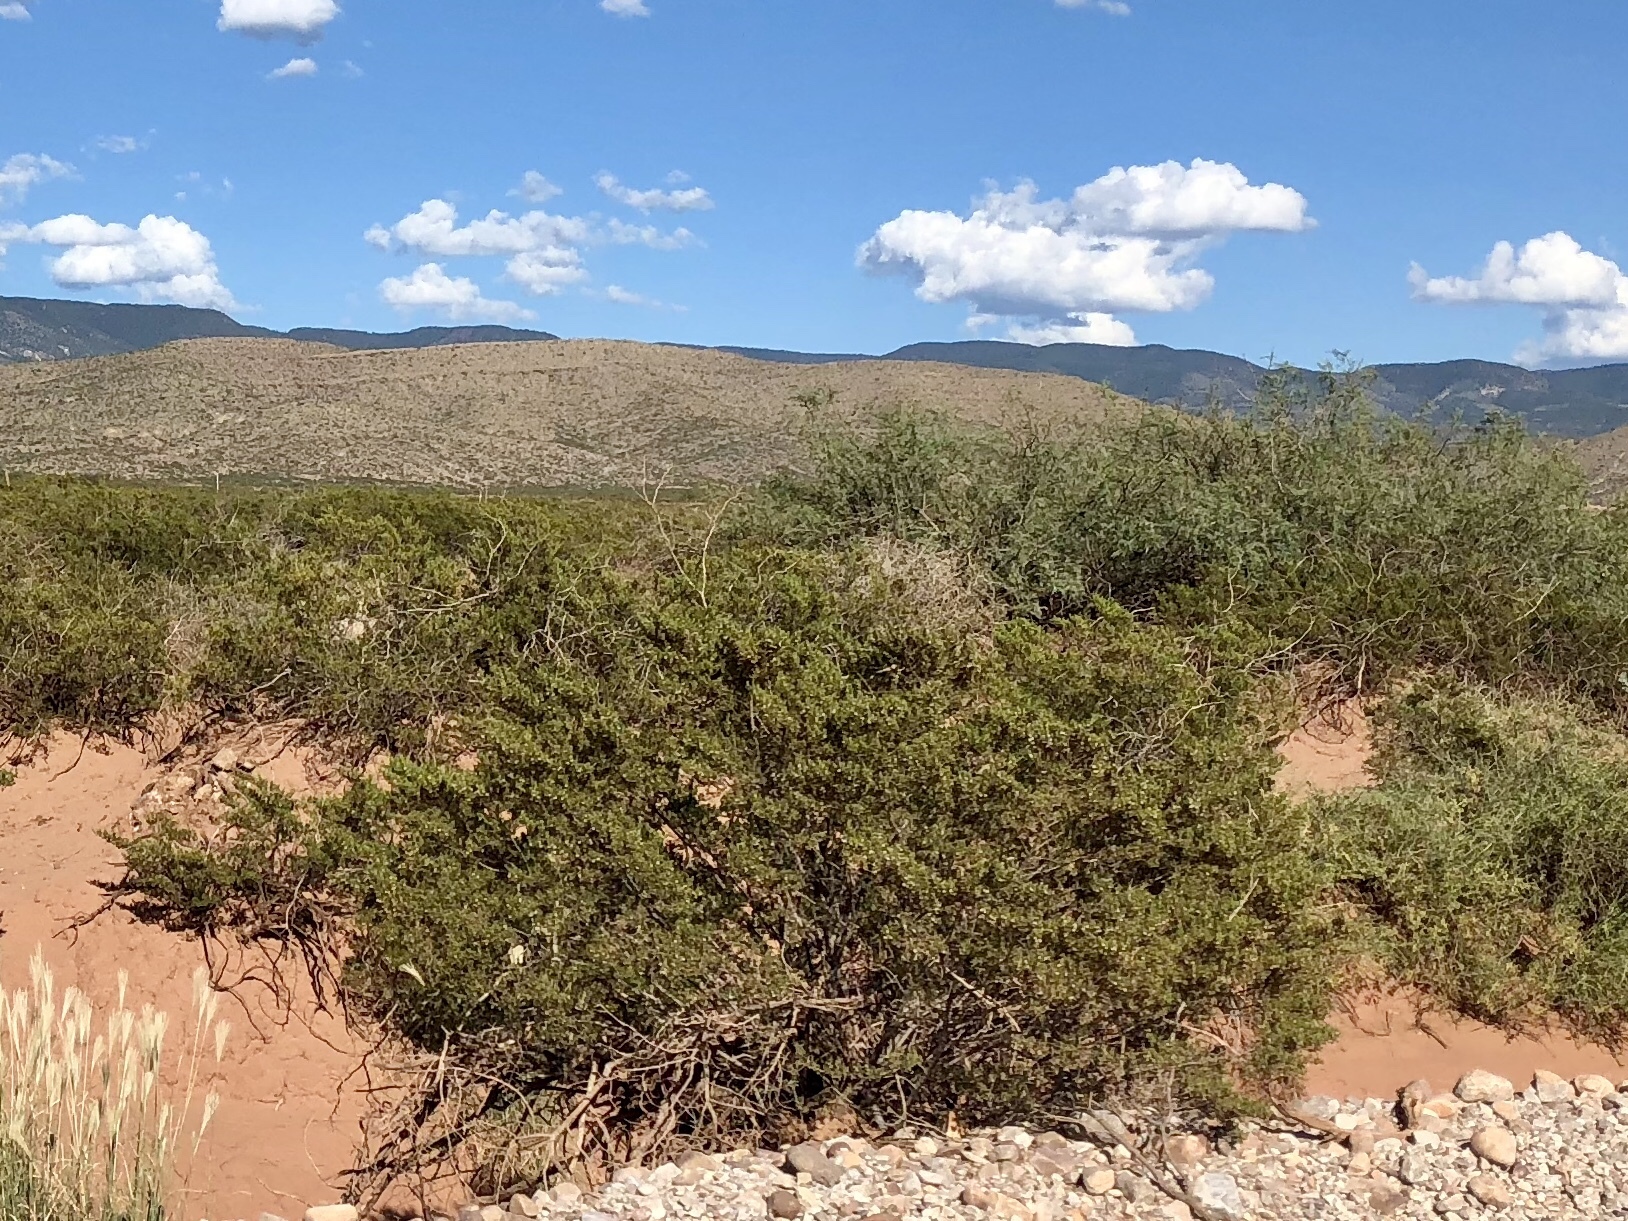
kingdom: Plantae
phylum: Tracheophyta
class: Magnoliopsida
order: Zygophyllales
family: Zygophyllaceae
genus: Larrea
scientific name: Larrea tridentata
